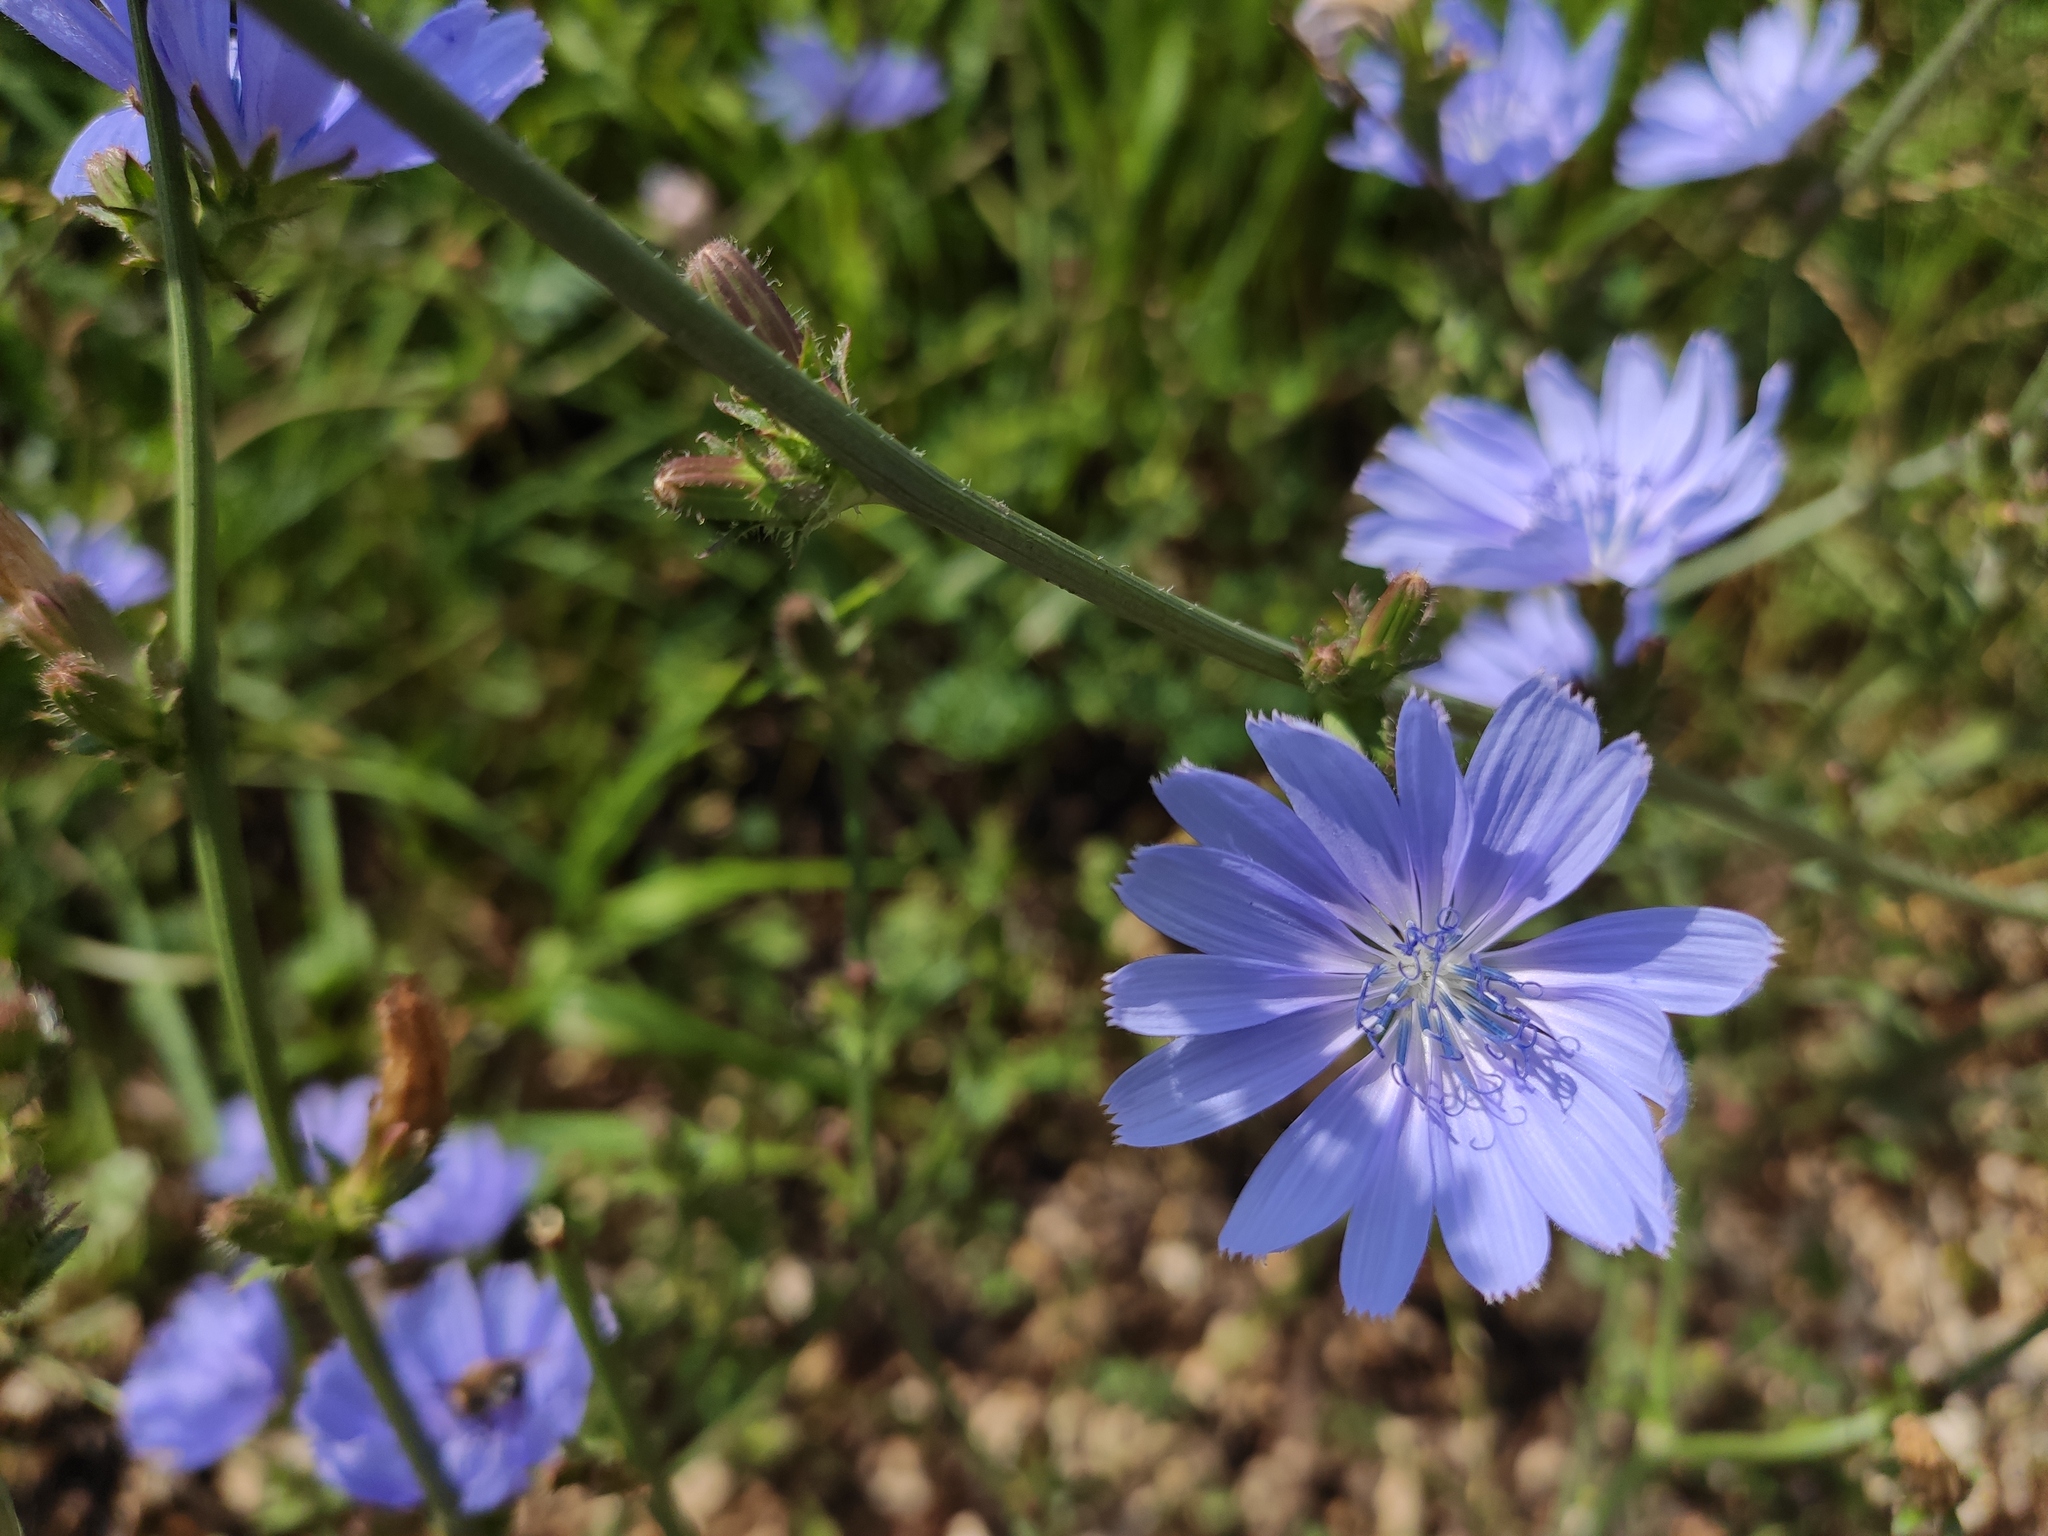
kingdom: Plantae
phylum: Tracheophyta
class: Magnoliopsida
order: Asterales
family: Asteraceae
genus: Cichorium
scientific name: Cichorium intybus
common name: Chicory
